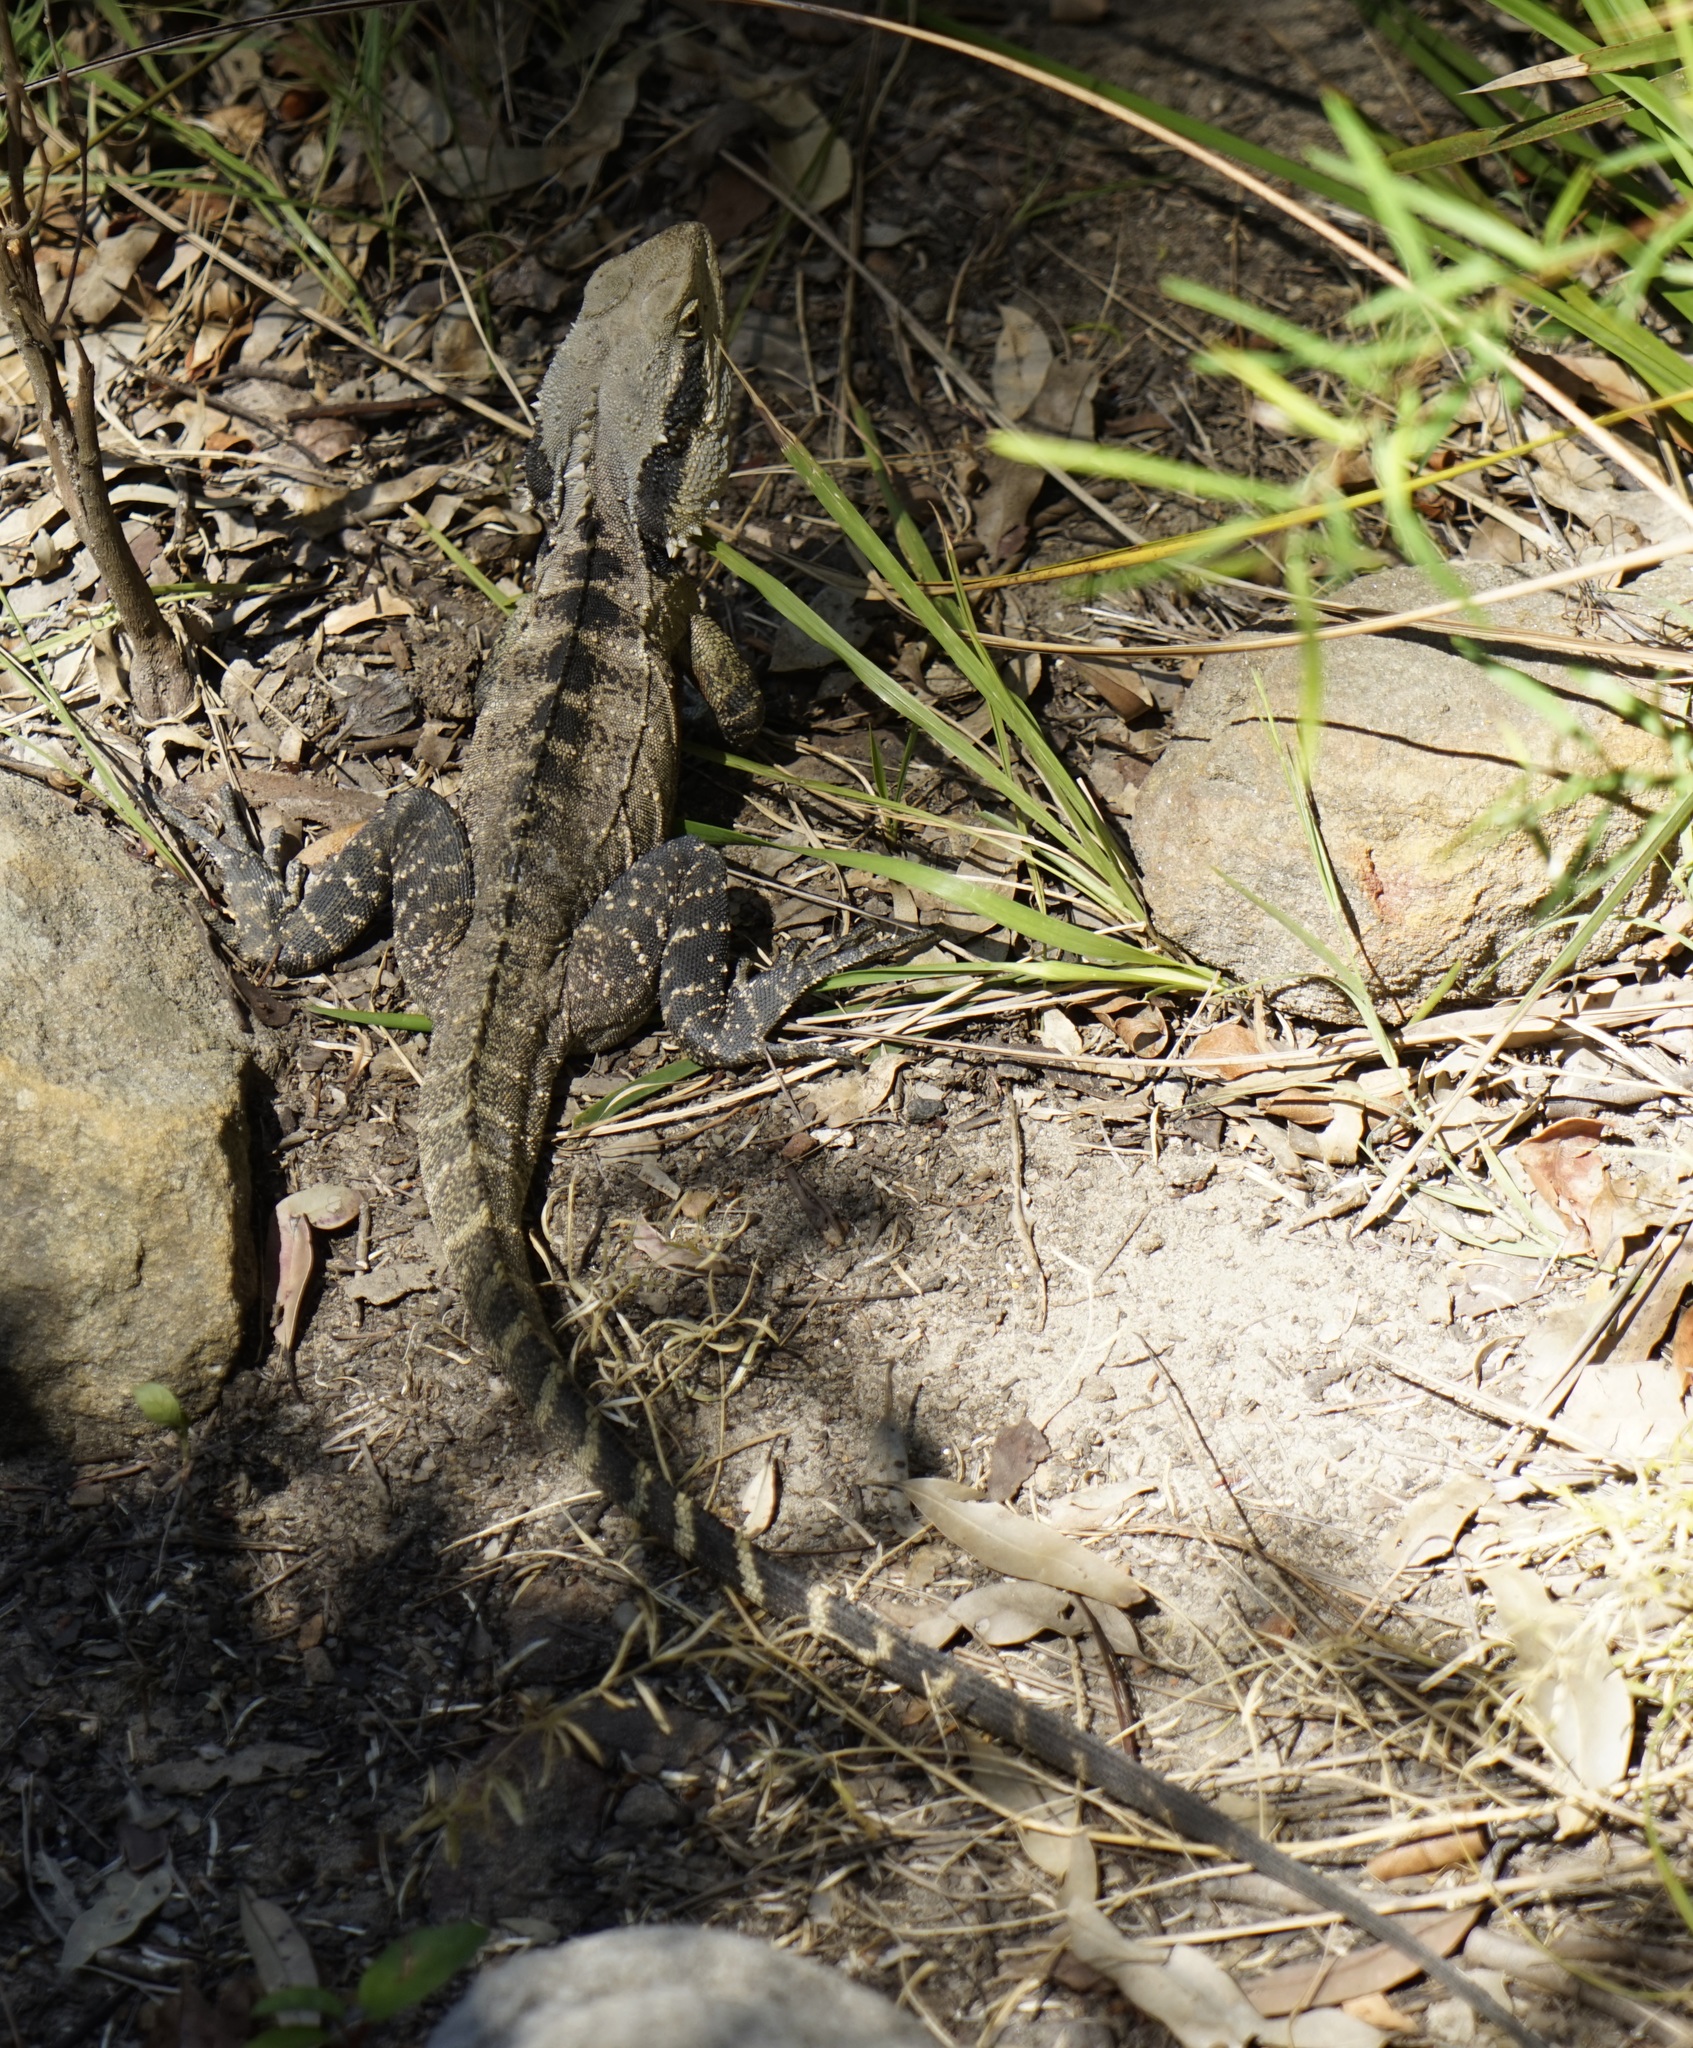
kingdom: Animalia
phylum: Chordata
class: Squamata
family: Agamidae
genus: Intellagama
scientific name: Intellagama lesueurii
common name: Eastern water dragon
